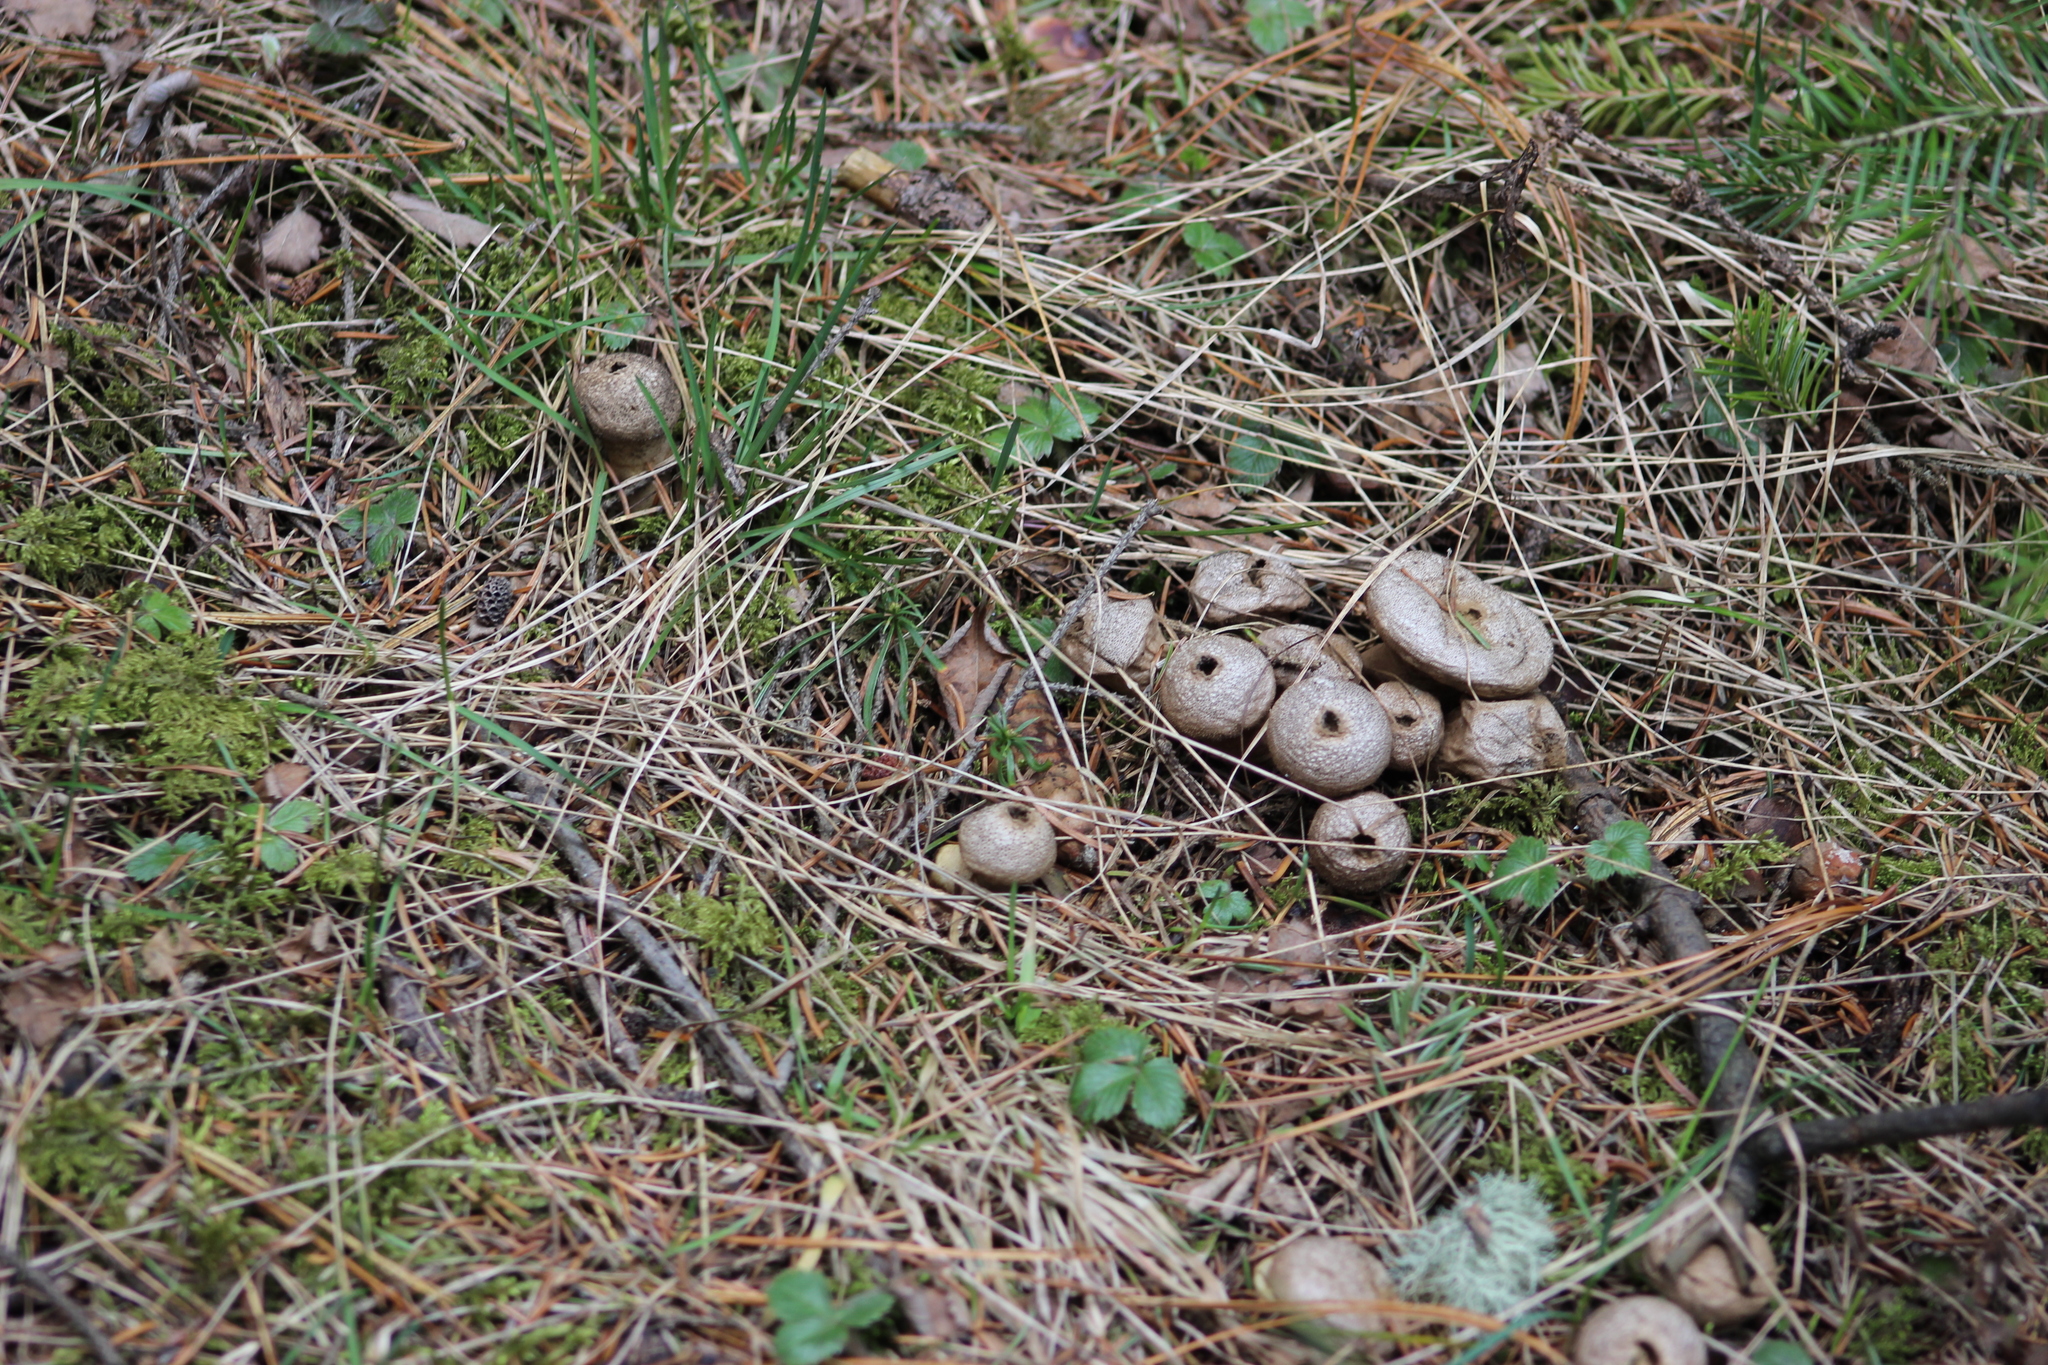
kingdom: Fungi
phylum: Basidiomycota
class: Agaricomycetes
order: Agaricales
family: Lycoperdaceae
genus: Lycoperdon
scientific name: Lycoperdon perlatum
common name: Common puffball
